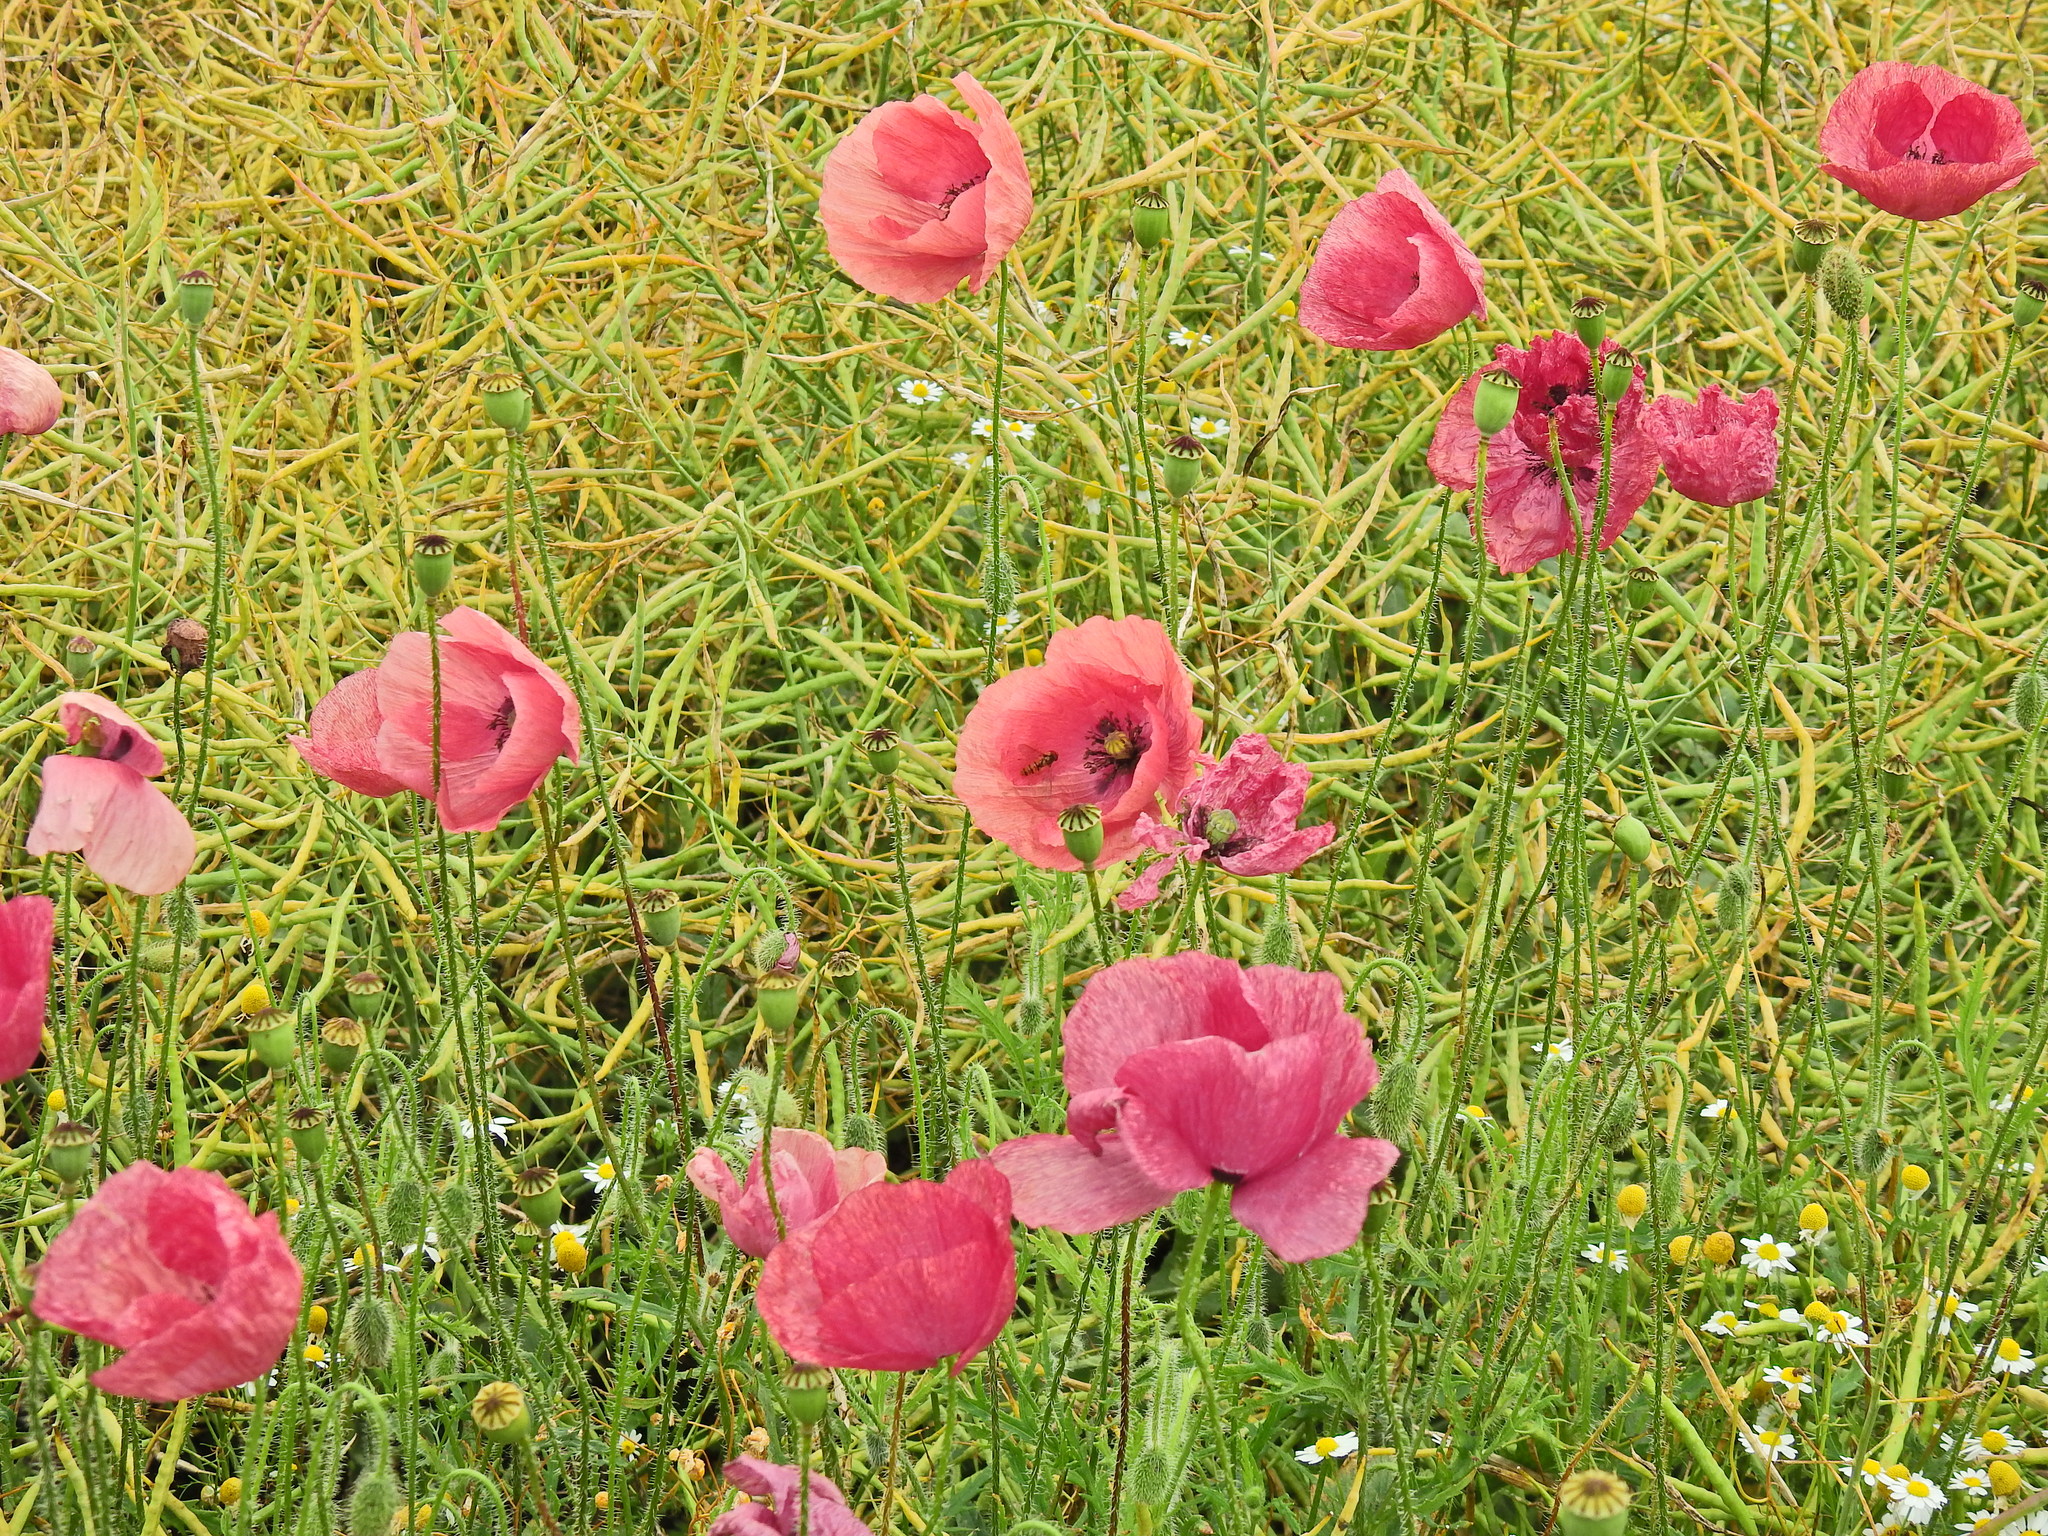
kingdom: Plantae
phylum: Tracheophyta
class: Magnoliopsida
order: Ranunculales
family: Papaveraceae
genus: Papaver
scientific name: Papaver rhoeas
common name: Corn poppy
